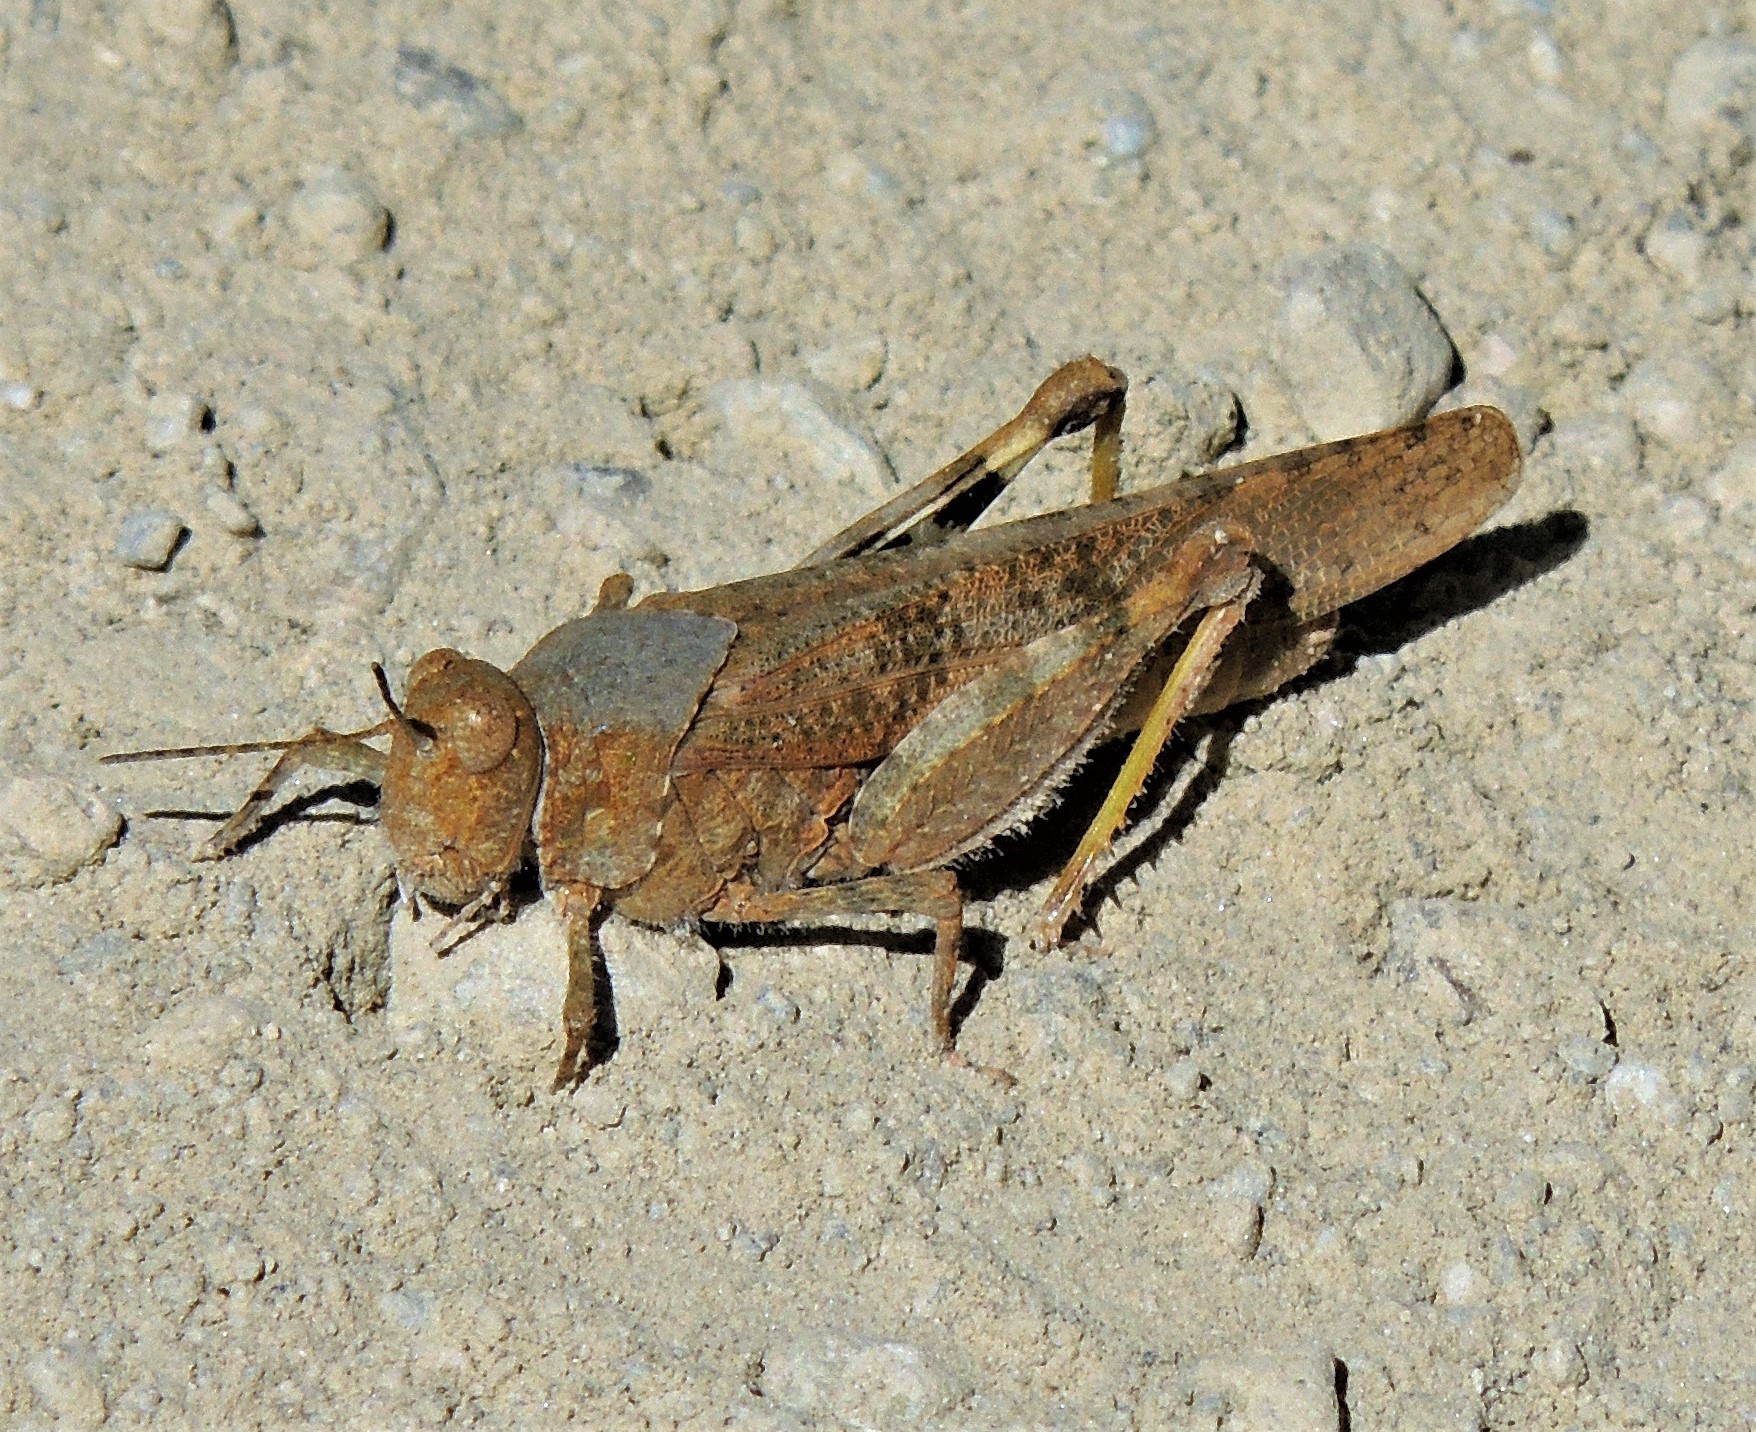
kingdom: Animalia
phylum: Arthropoda
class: Insecta
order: Orthoptera
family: Acrididae
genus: Trimerotropis
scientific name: Trimerotropis pallidipennis
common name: Pallid-winged grasshopper
